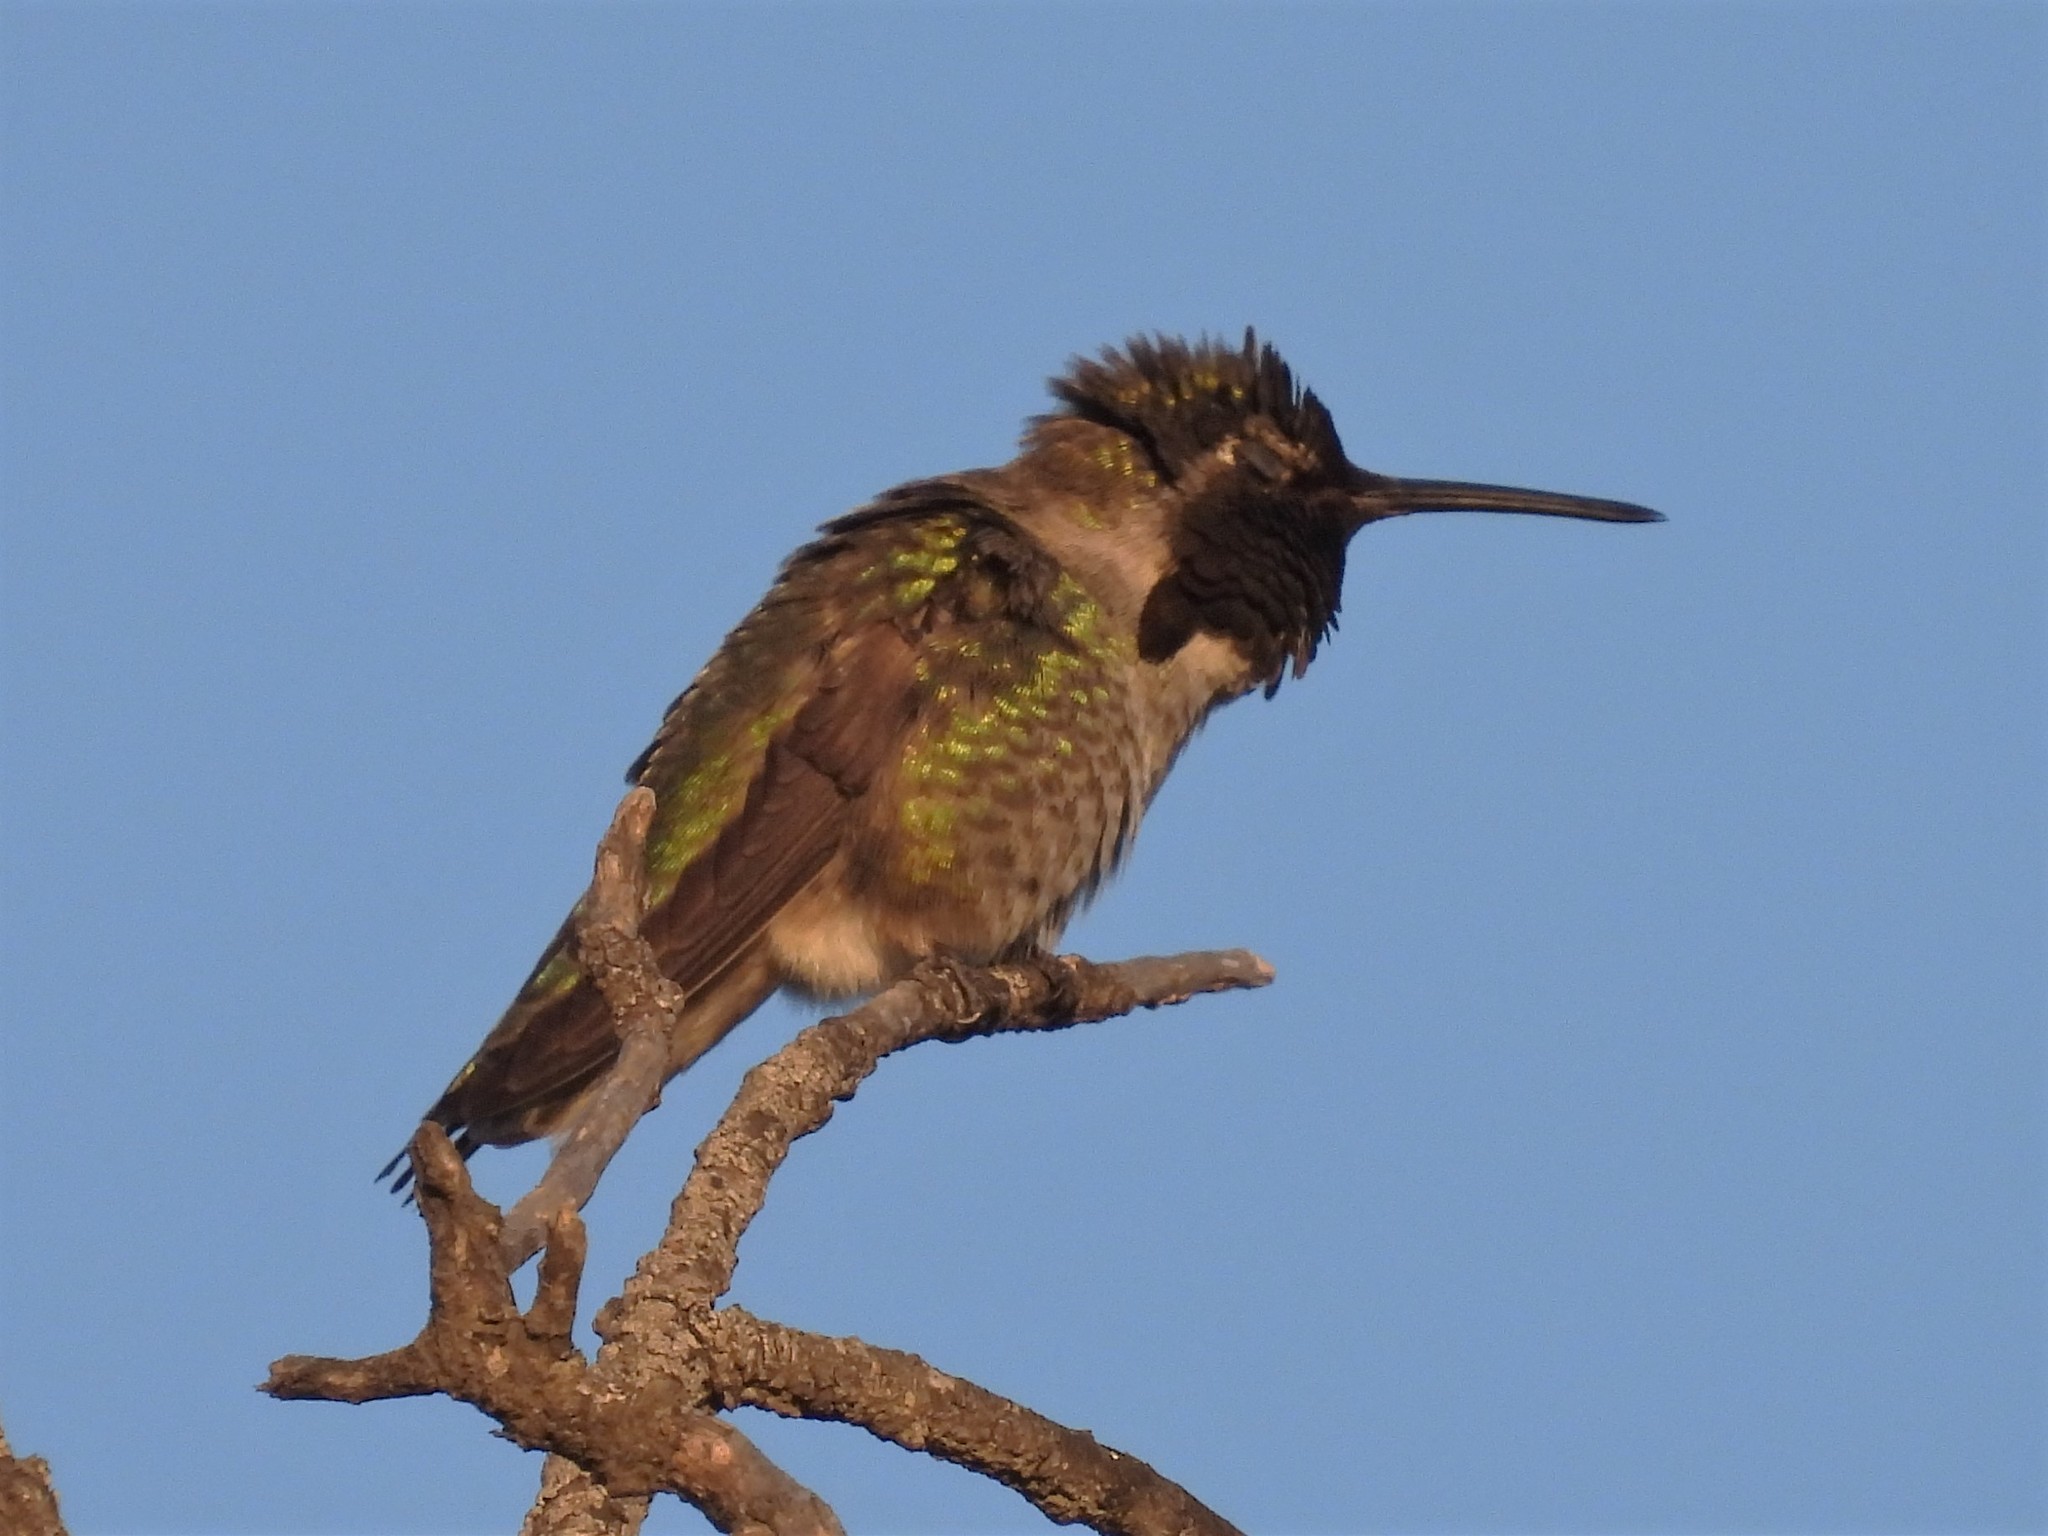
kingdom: Animalia
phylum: Chordata
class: Aves
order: Apodiformes
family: Trochilidae
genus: Calypte
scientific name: Calypte anna
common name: Anna's hummingbird
